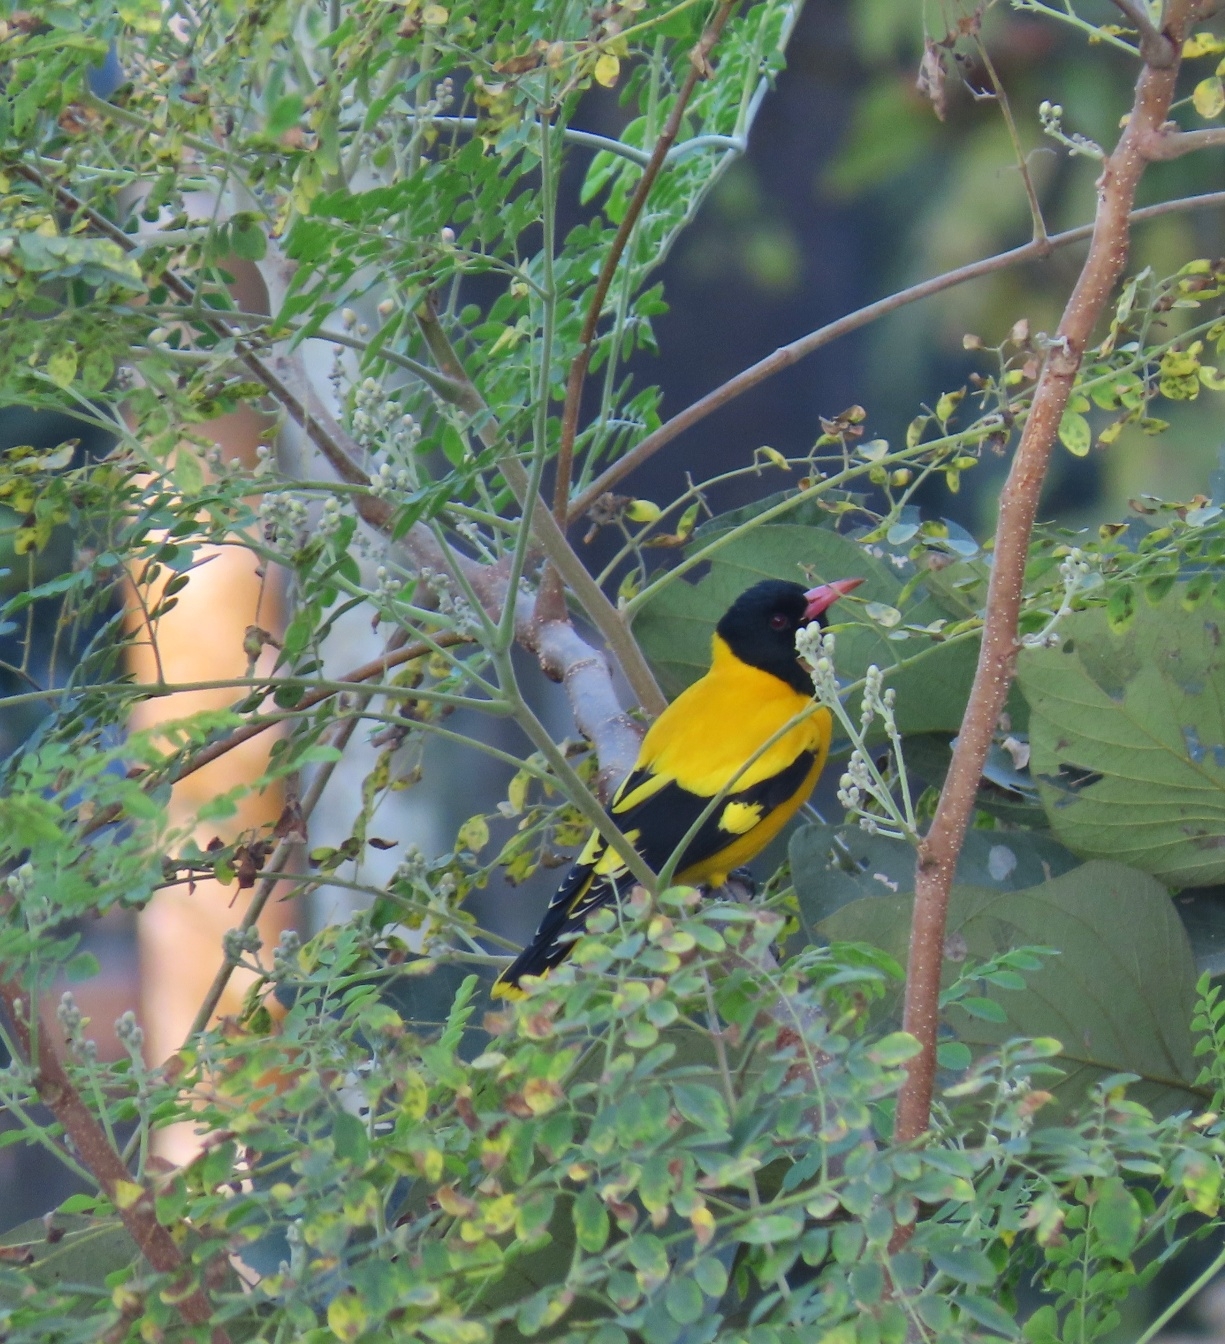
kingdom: Animalia
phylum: Chordata
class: Aves
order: Passeriformes
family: Oriolidae
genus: Oriolus
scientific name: Oriolus xanthornus
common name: Black-hooded oriole
